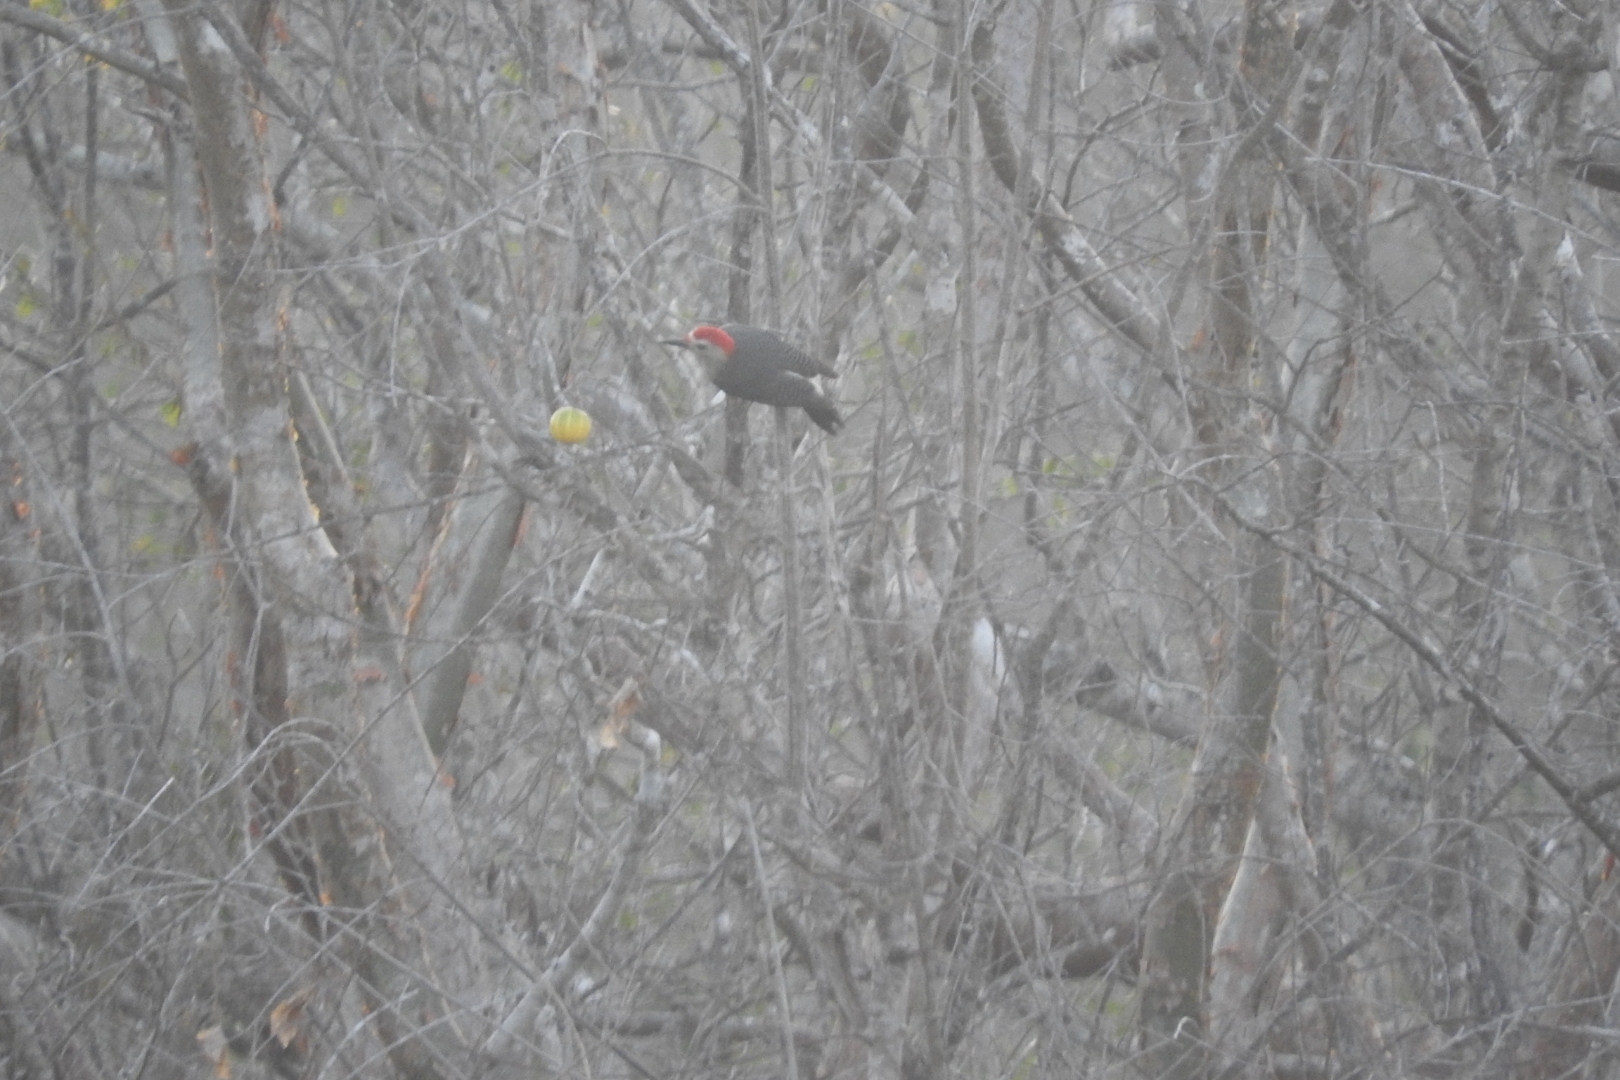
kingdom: Animalia
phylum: Chordata
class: Aves
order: Piciformes
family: Picidae
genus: Melanerpes
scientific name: Melanerpes aurifrons
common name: Golden-fronted woodpecker
